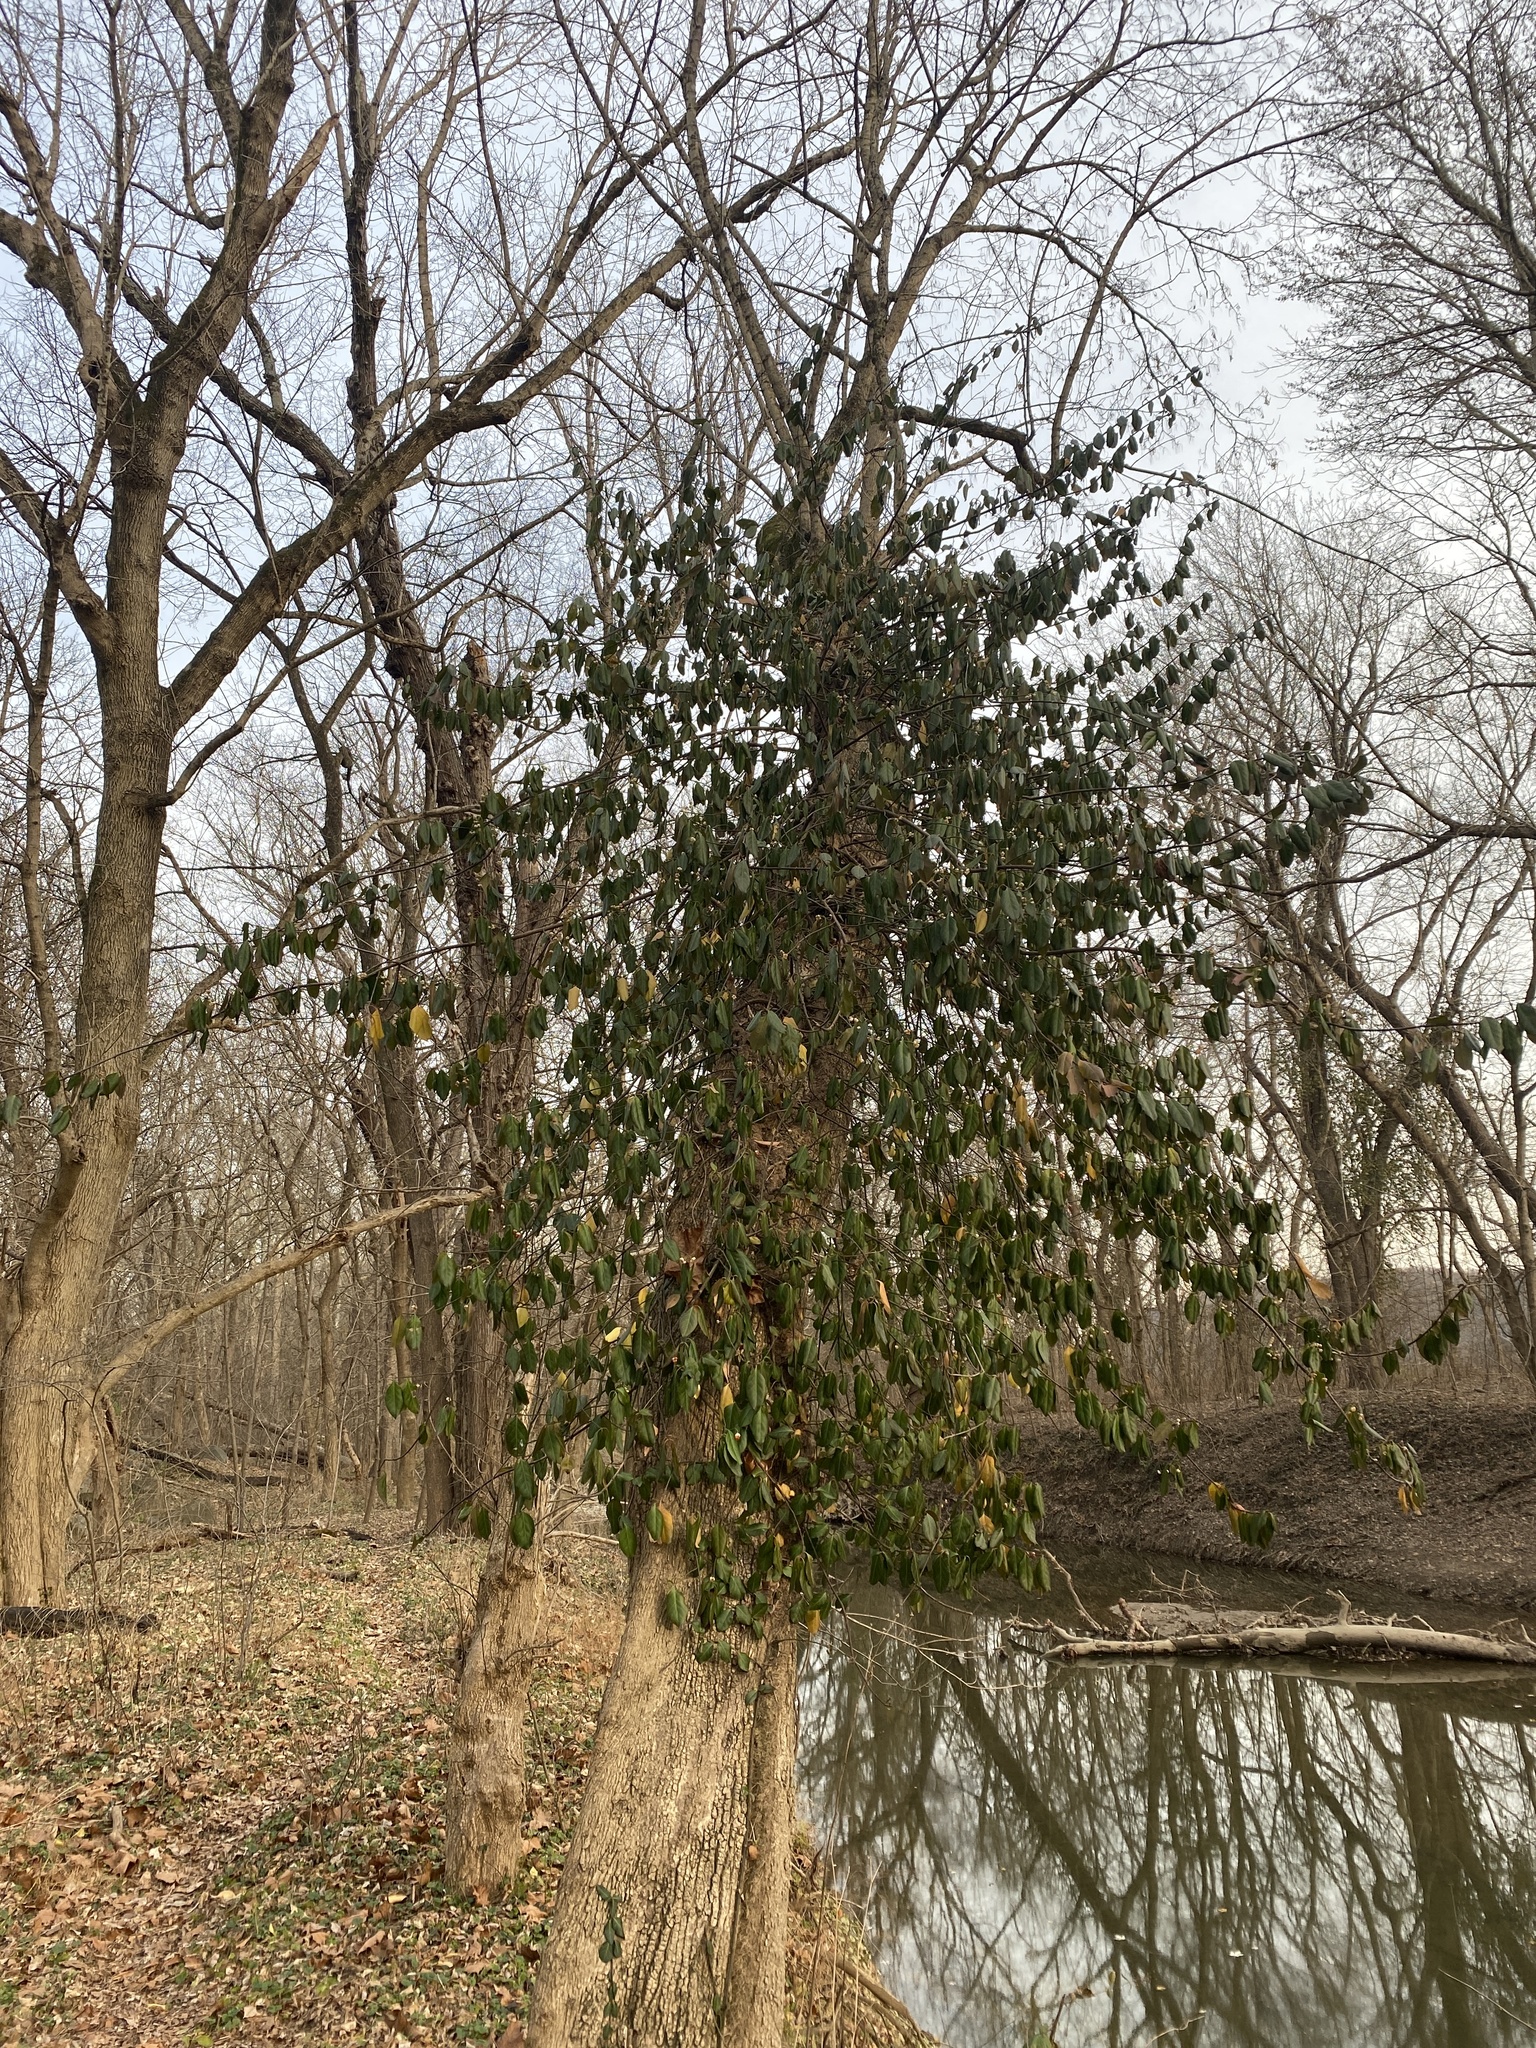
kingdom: Plantae
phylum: Tracheophyta
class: Magnoliopsida
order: Celastrales
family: Celastraceae
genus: Euonymus
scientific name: Euonymus fortunei
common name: Climbing euonymus
